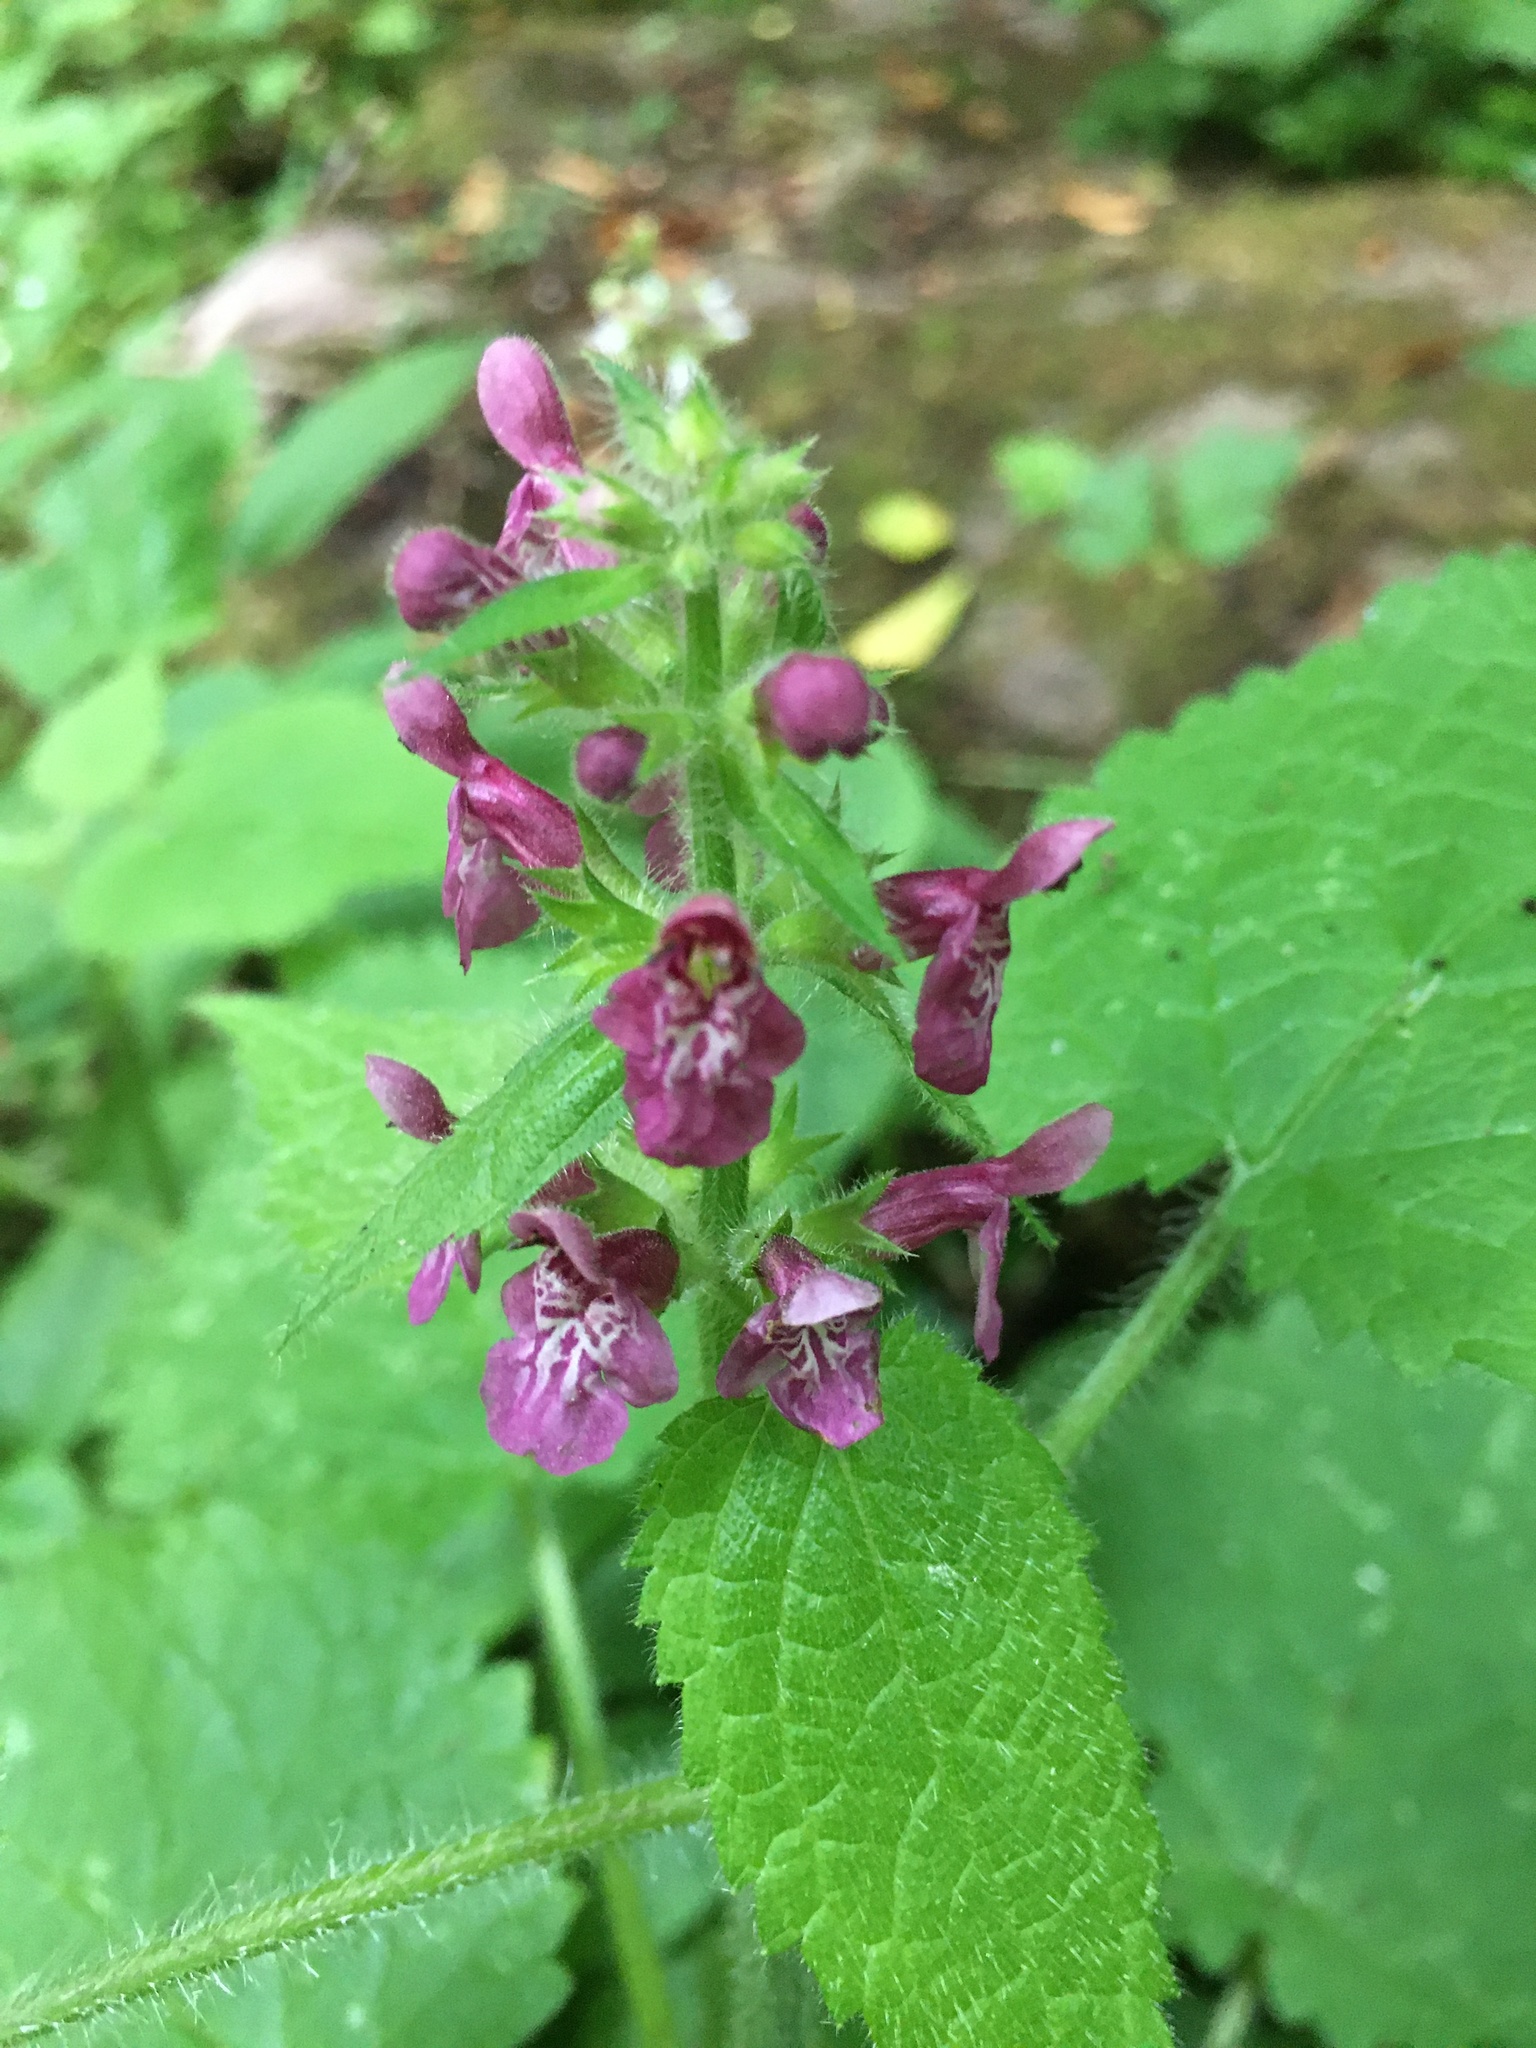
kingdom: Plantae
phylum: Tracheophyta
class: Magnoliopsida
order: Lamiales
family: Lamiaceae
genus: Stachys
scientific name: Stachys sylvatica
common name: Hedge woundwort
